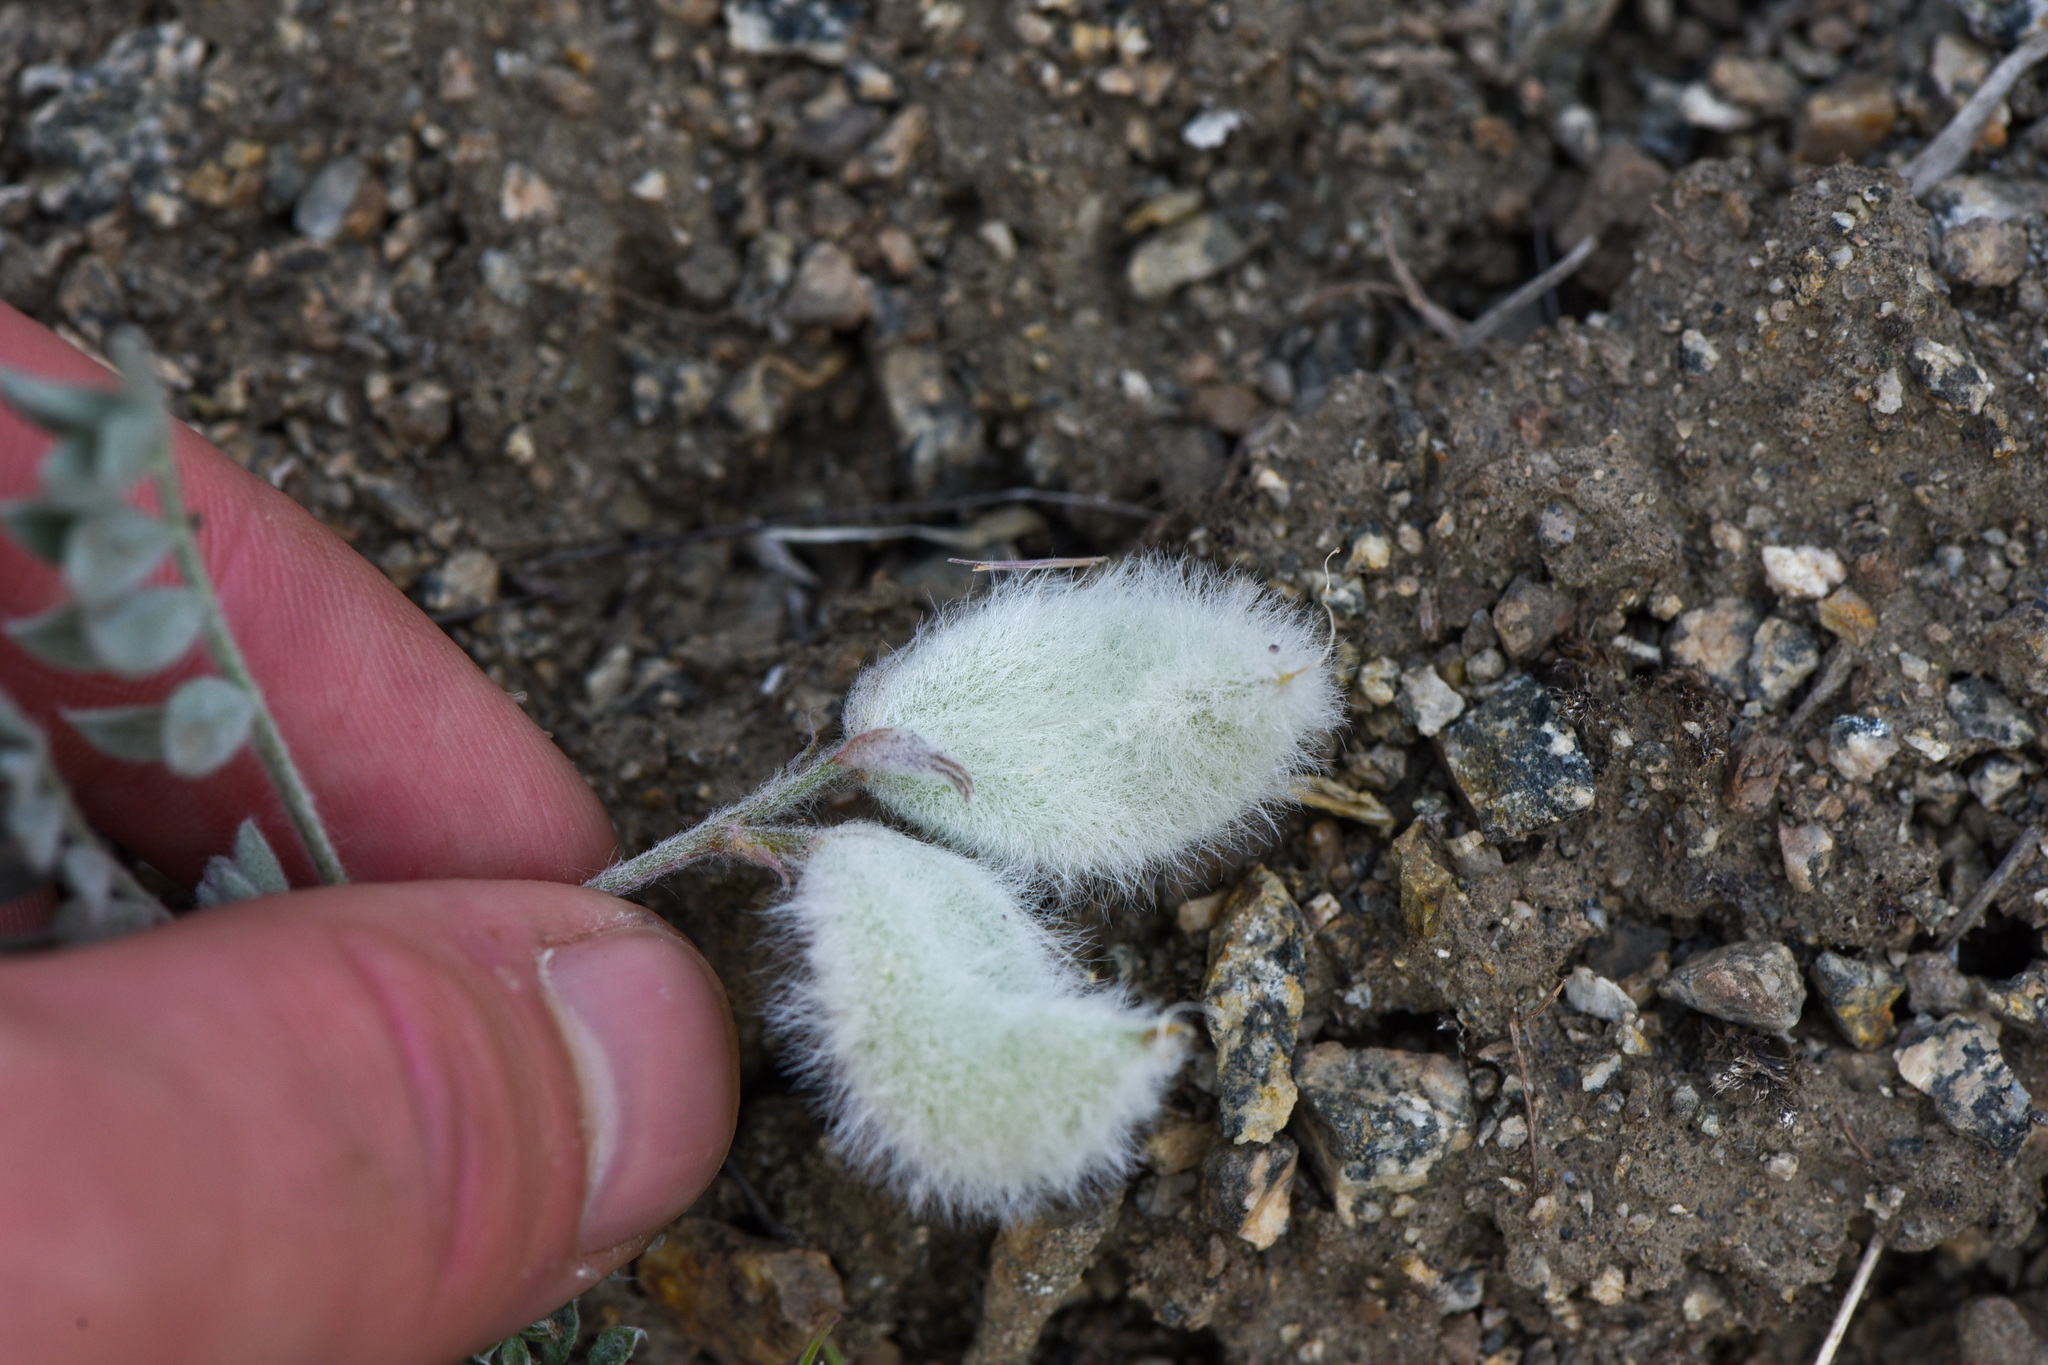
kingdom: Plantae
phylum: Tracheophyta
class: Magnoliopsida
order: Fabales
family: Fabaceae
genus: Astragalus
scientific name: Astragalus purshii
